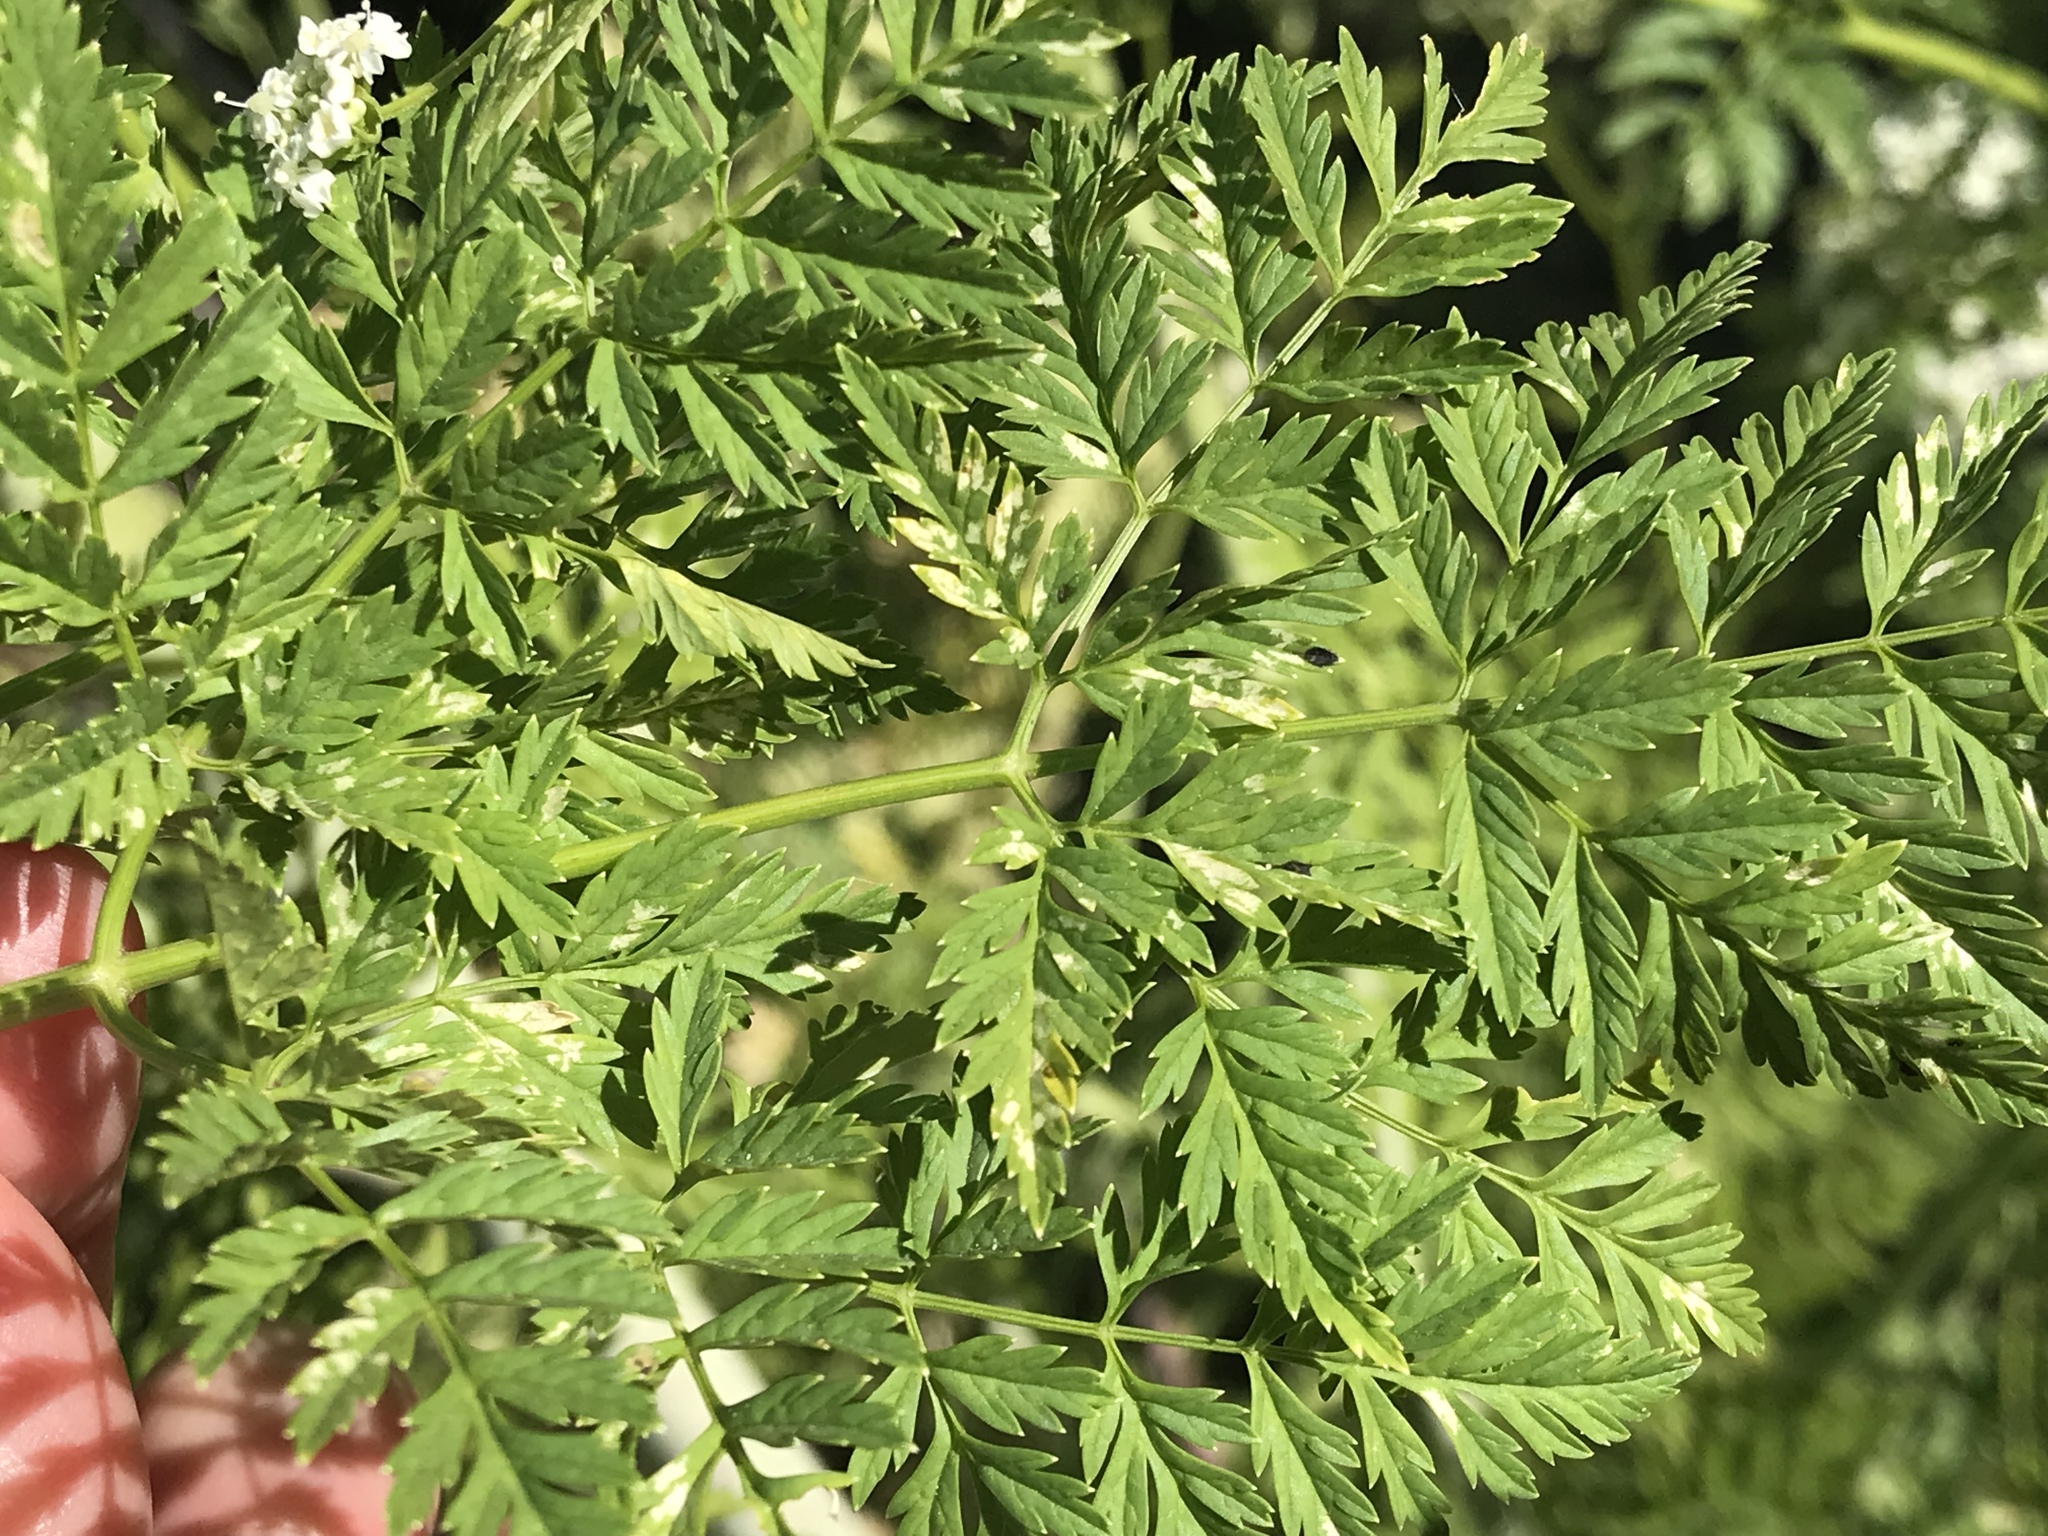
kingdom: Plantae
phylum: Tracheophyta
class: Magnoliopsida
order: Apiales
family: Apiaceae
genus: Conium
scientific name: Conium maculatum
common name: Hemlock
